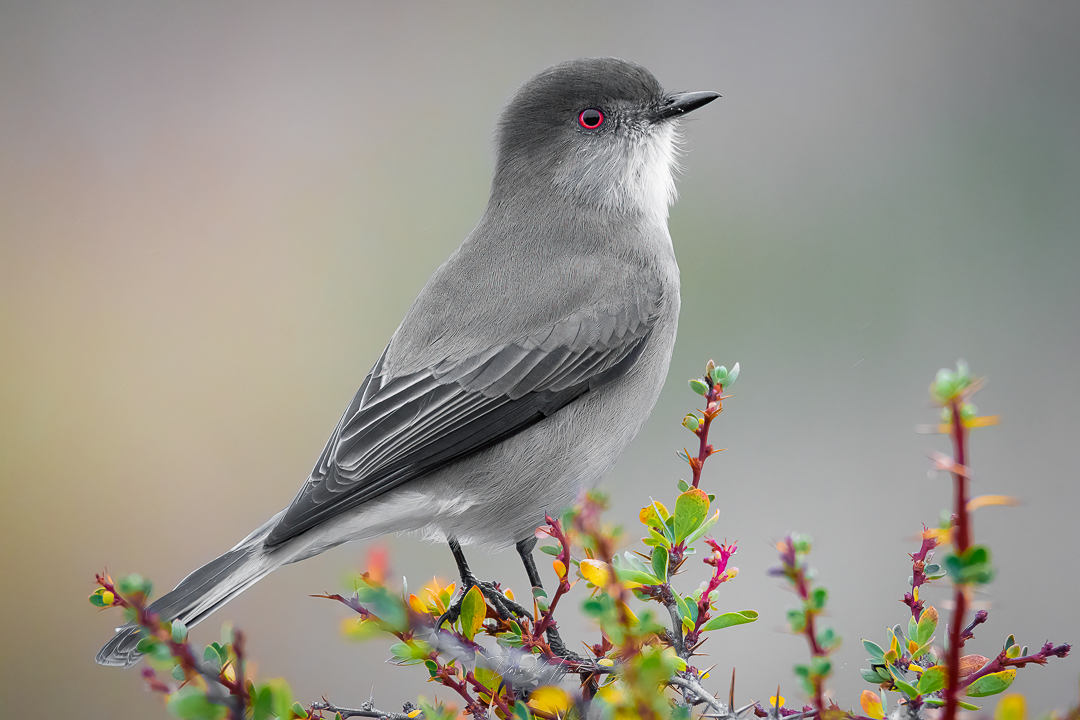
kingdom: Animalia
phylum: Chordata
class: Aves
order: Passeriformes
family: Tyrannidae
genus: Xolmis
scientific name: Xolmis pyrope
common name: Fire-eyed diucon
